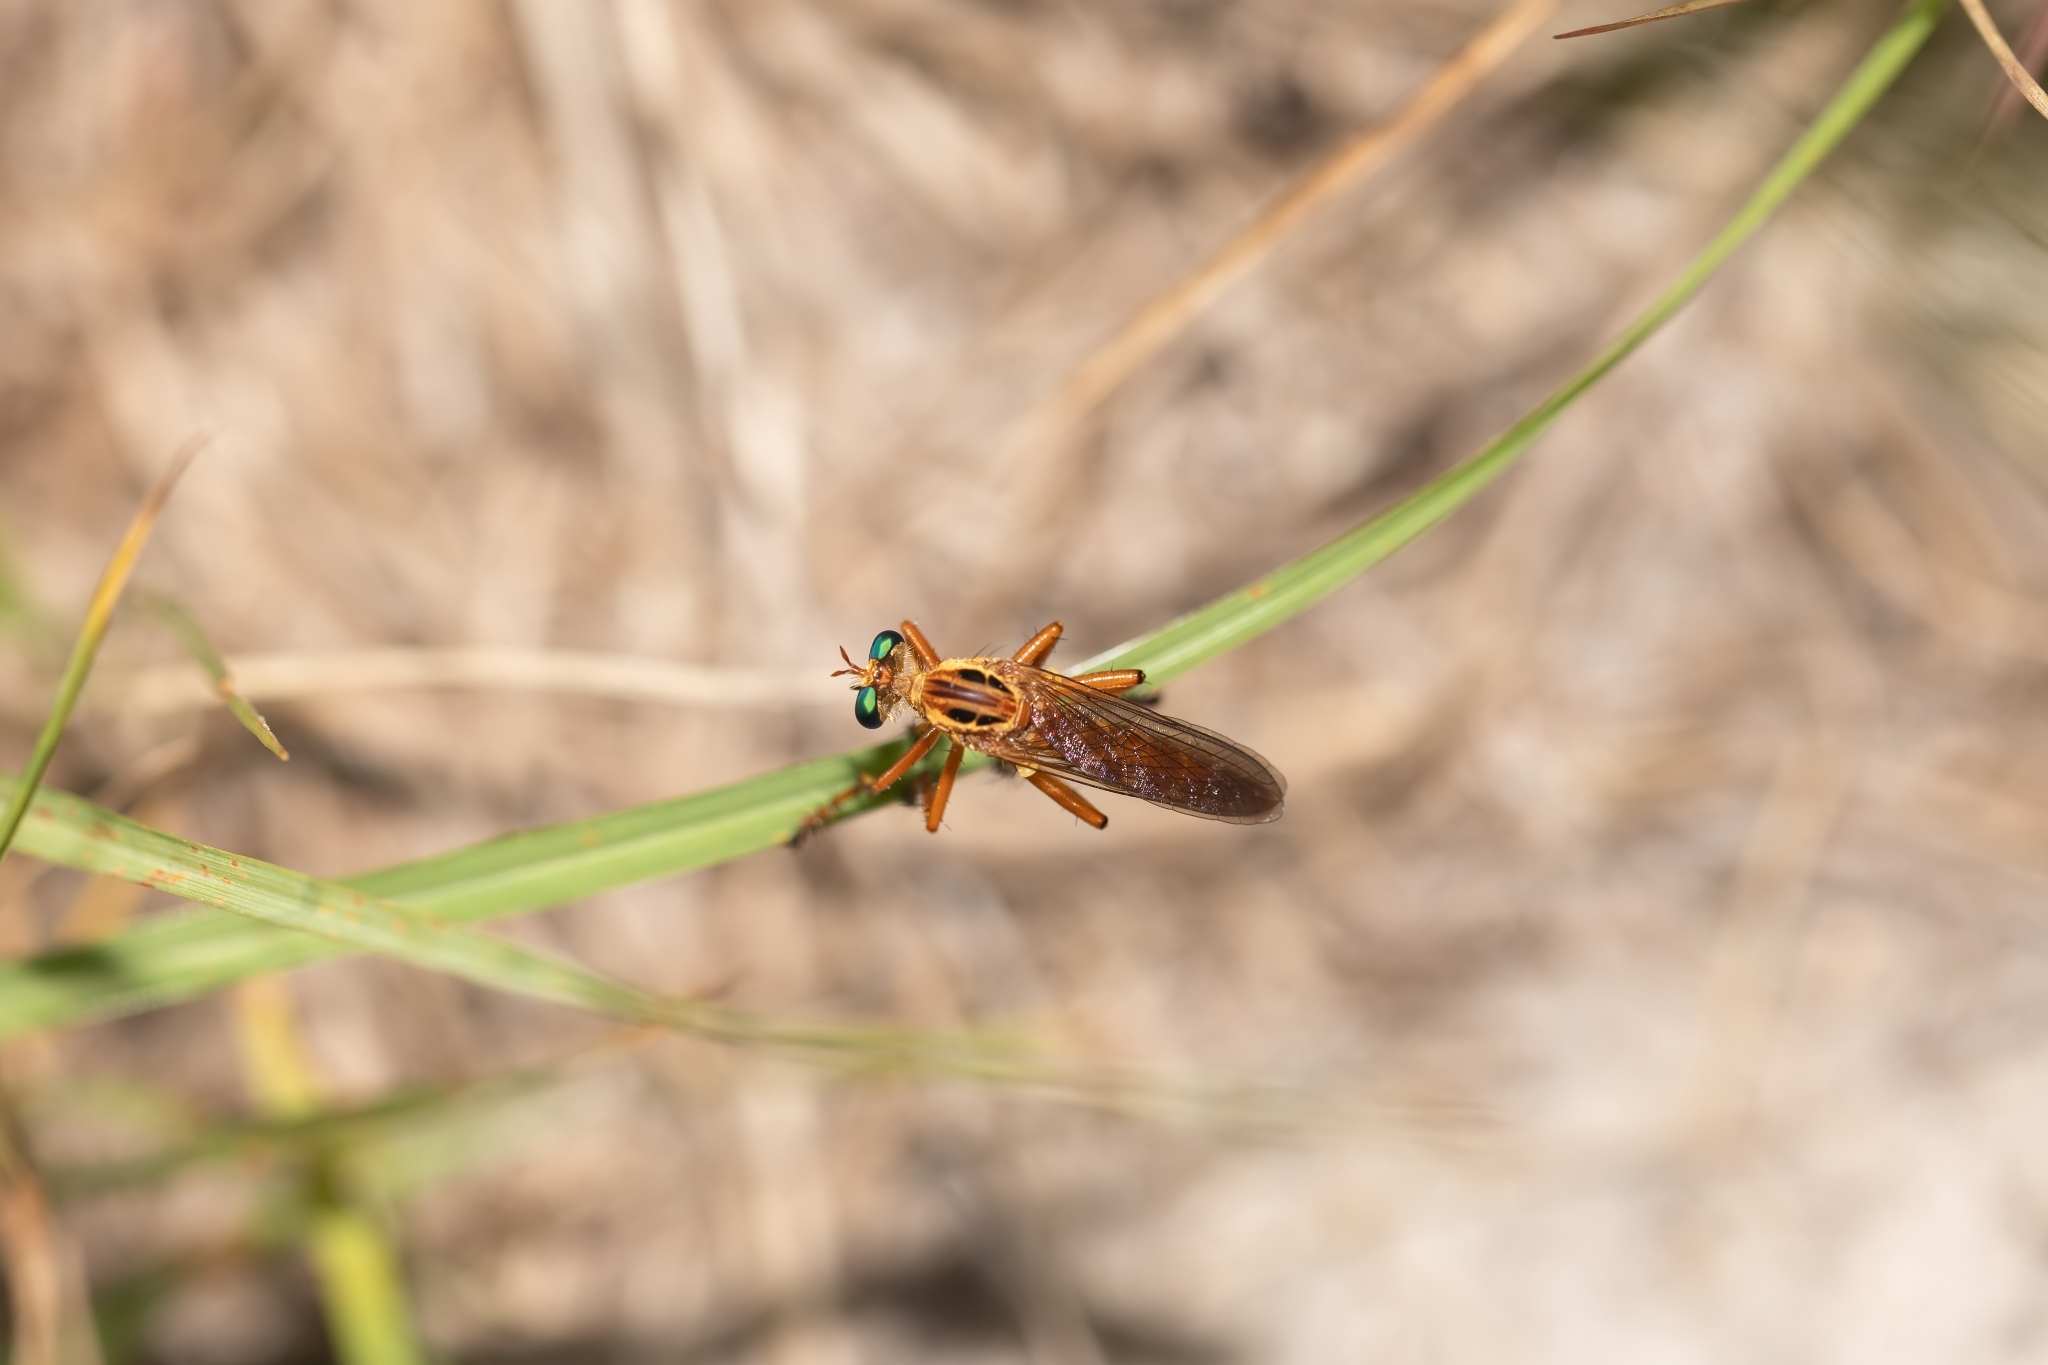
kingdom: Animalia
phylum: Arthropoda
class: Insecta
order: Diptera
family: Asilidae
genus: Diogmites
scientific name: Diogmites esuriens
